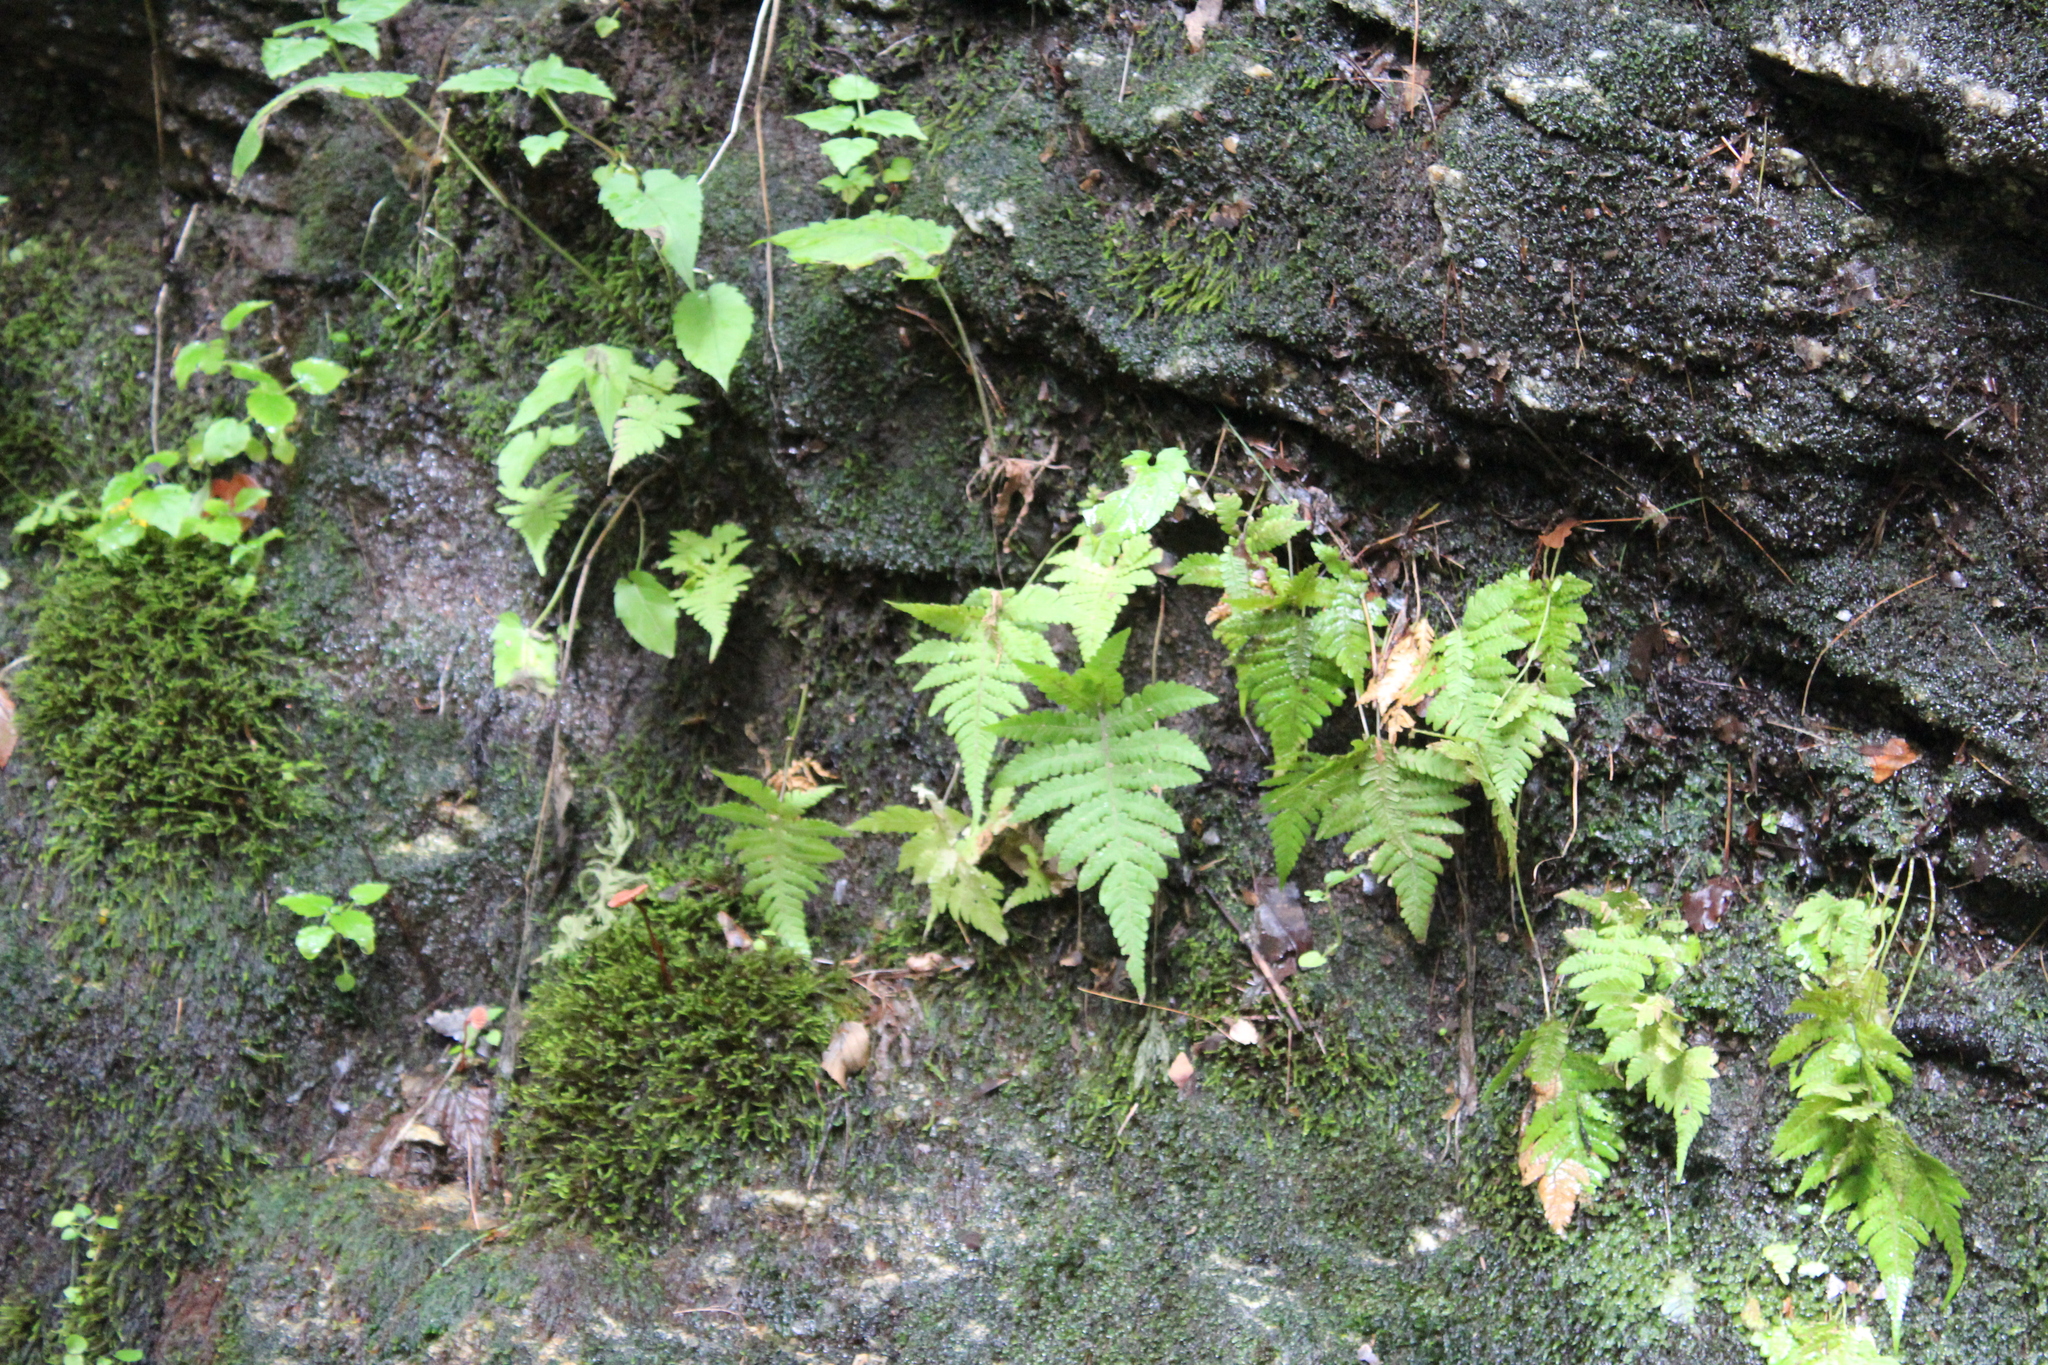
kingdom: Plantae
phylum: Tracheophyta
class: Polypodiopsida
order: Polypodiales
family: Thelypteridaceae
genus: Phegopteris
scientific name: Phegopteris connectilis
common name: Beech fern
